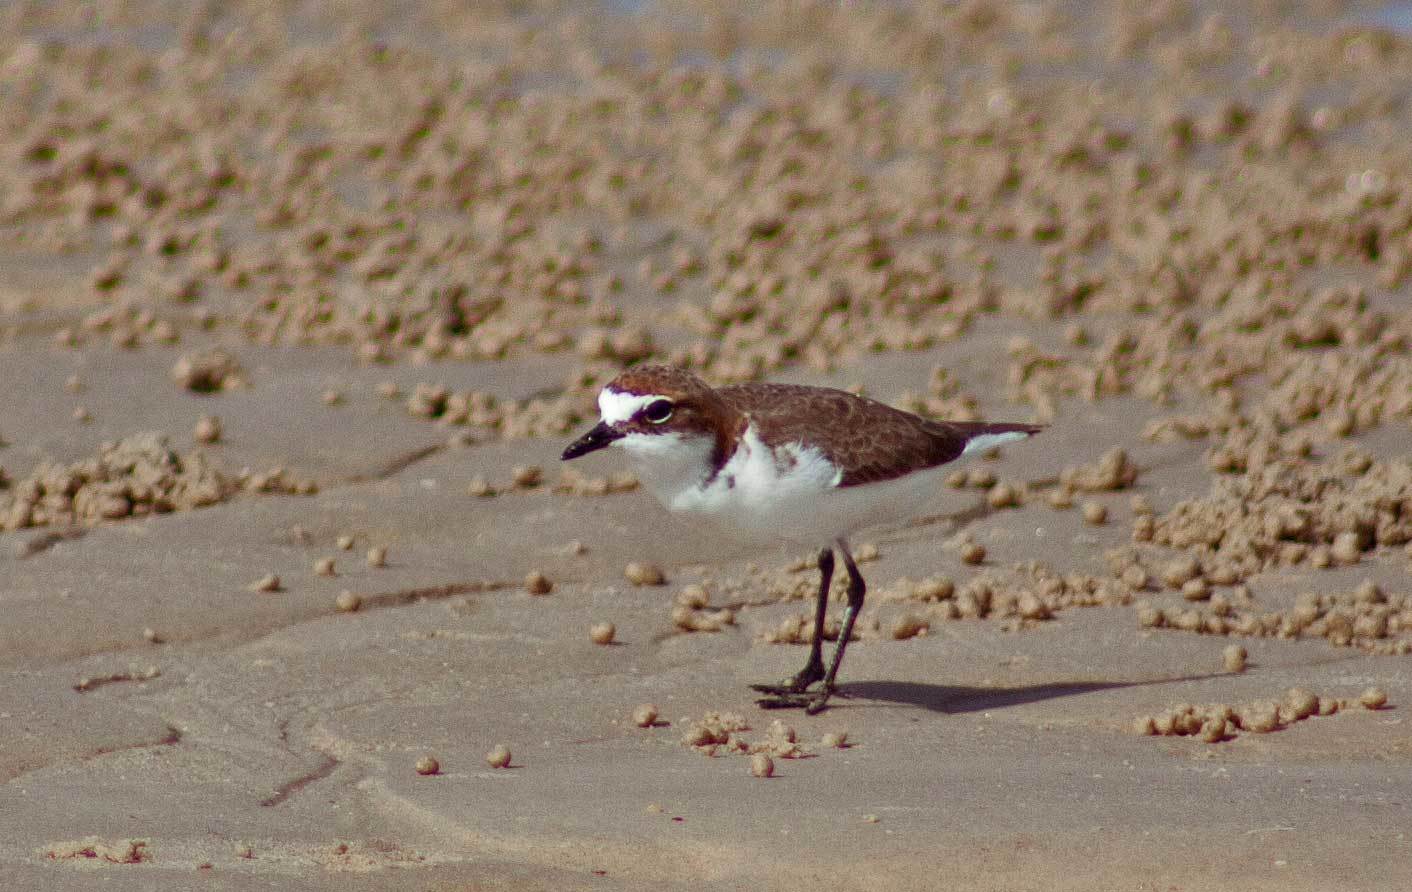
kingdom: Animalia
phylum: Chordata
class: Aves
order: Charadriiformes
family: Charadriidae
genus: Anarhynchus
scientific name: Anarhynchus
